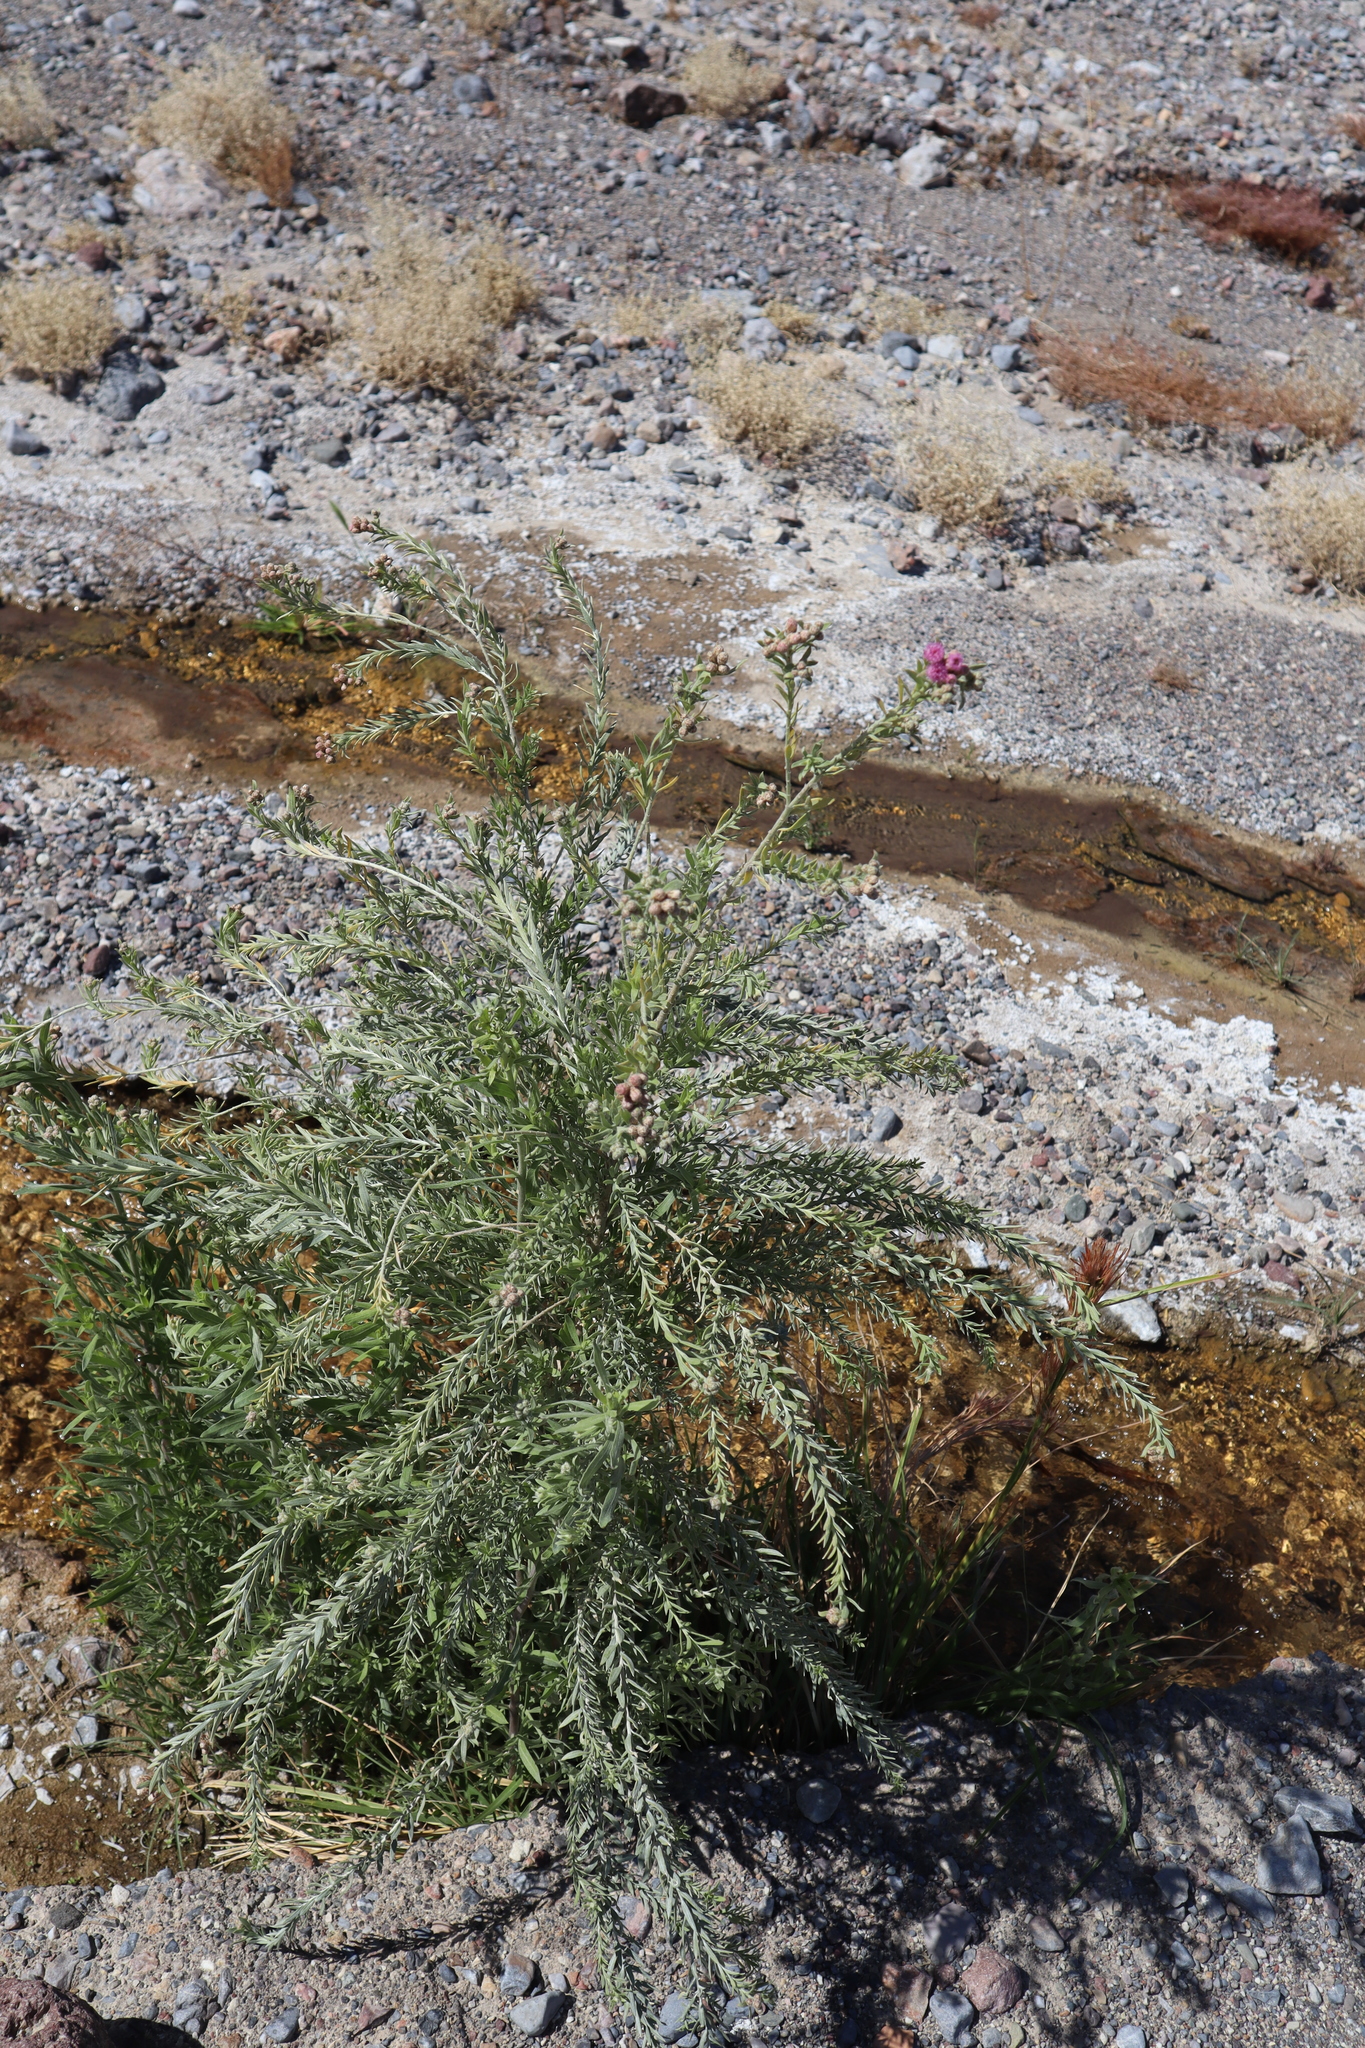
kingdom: Plantae
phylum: Tracheophyta
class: Magnoliopsida
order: Asterales
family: Asteraceae
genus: Pluchea
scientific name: Pluchea sericea
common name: Arrow-weed
